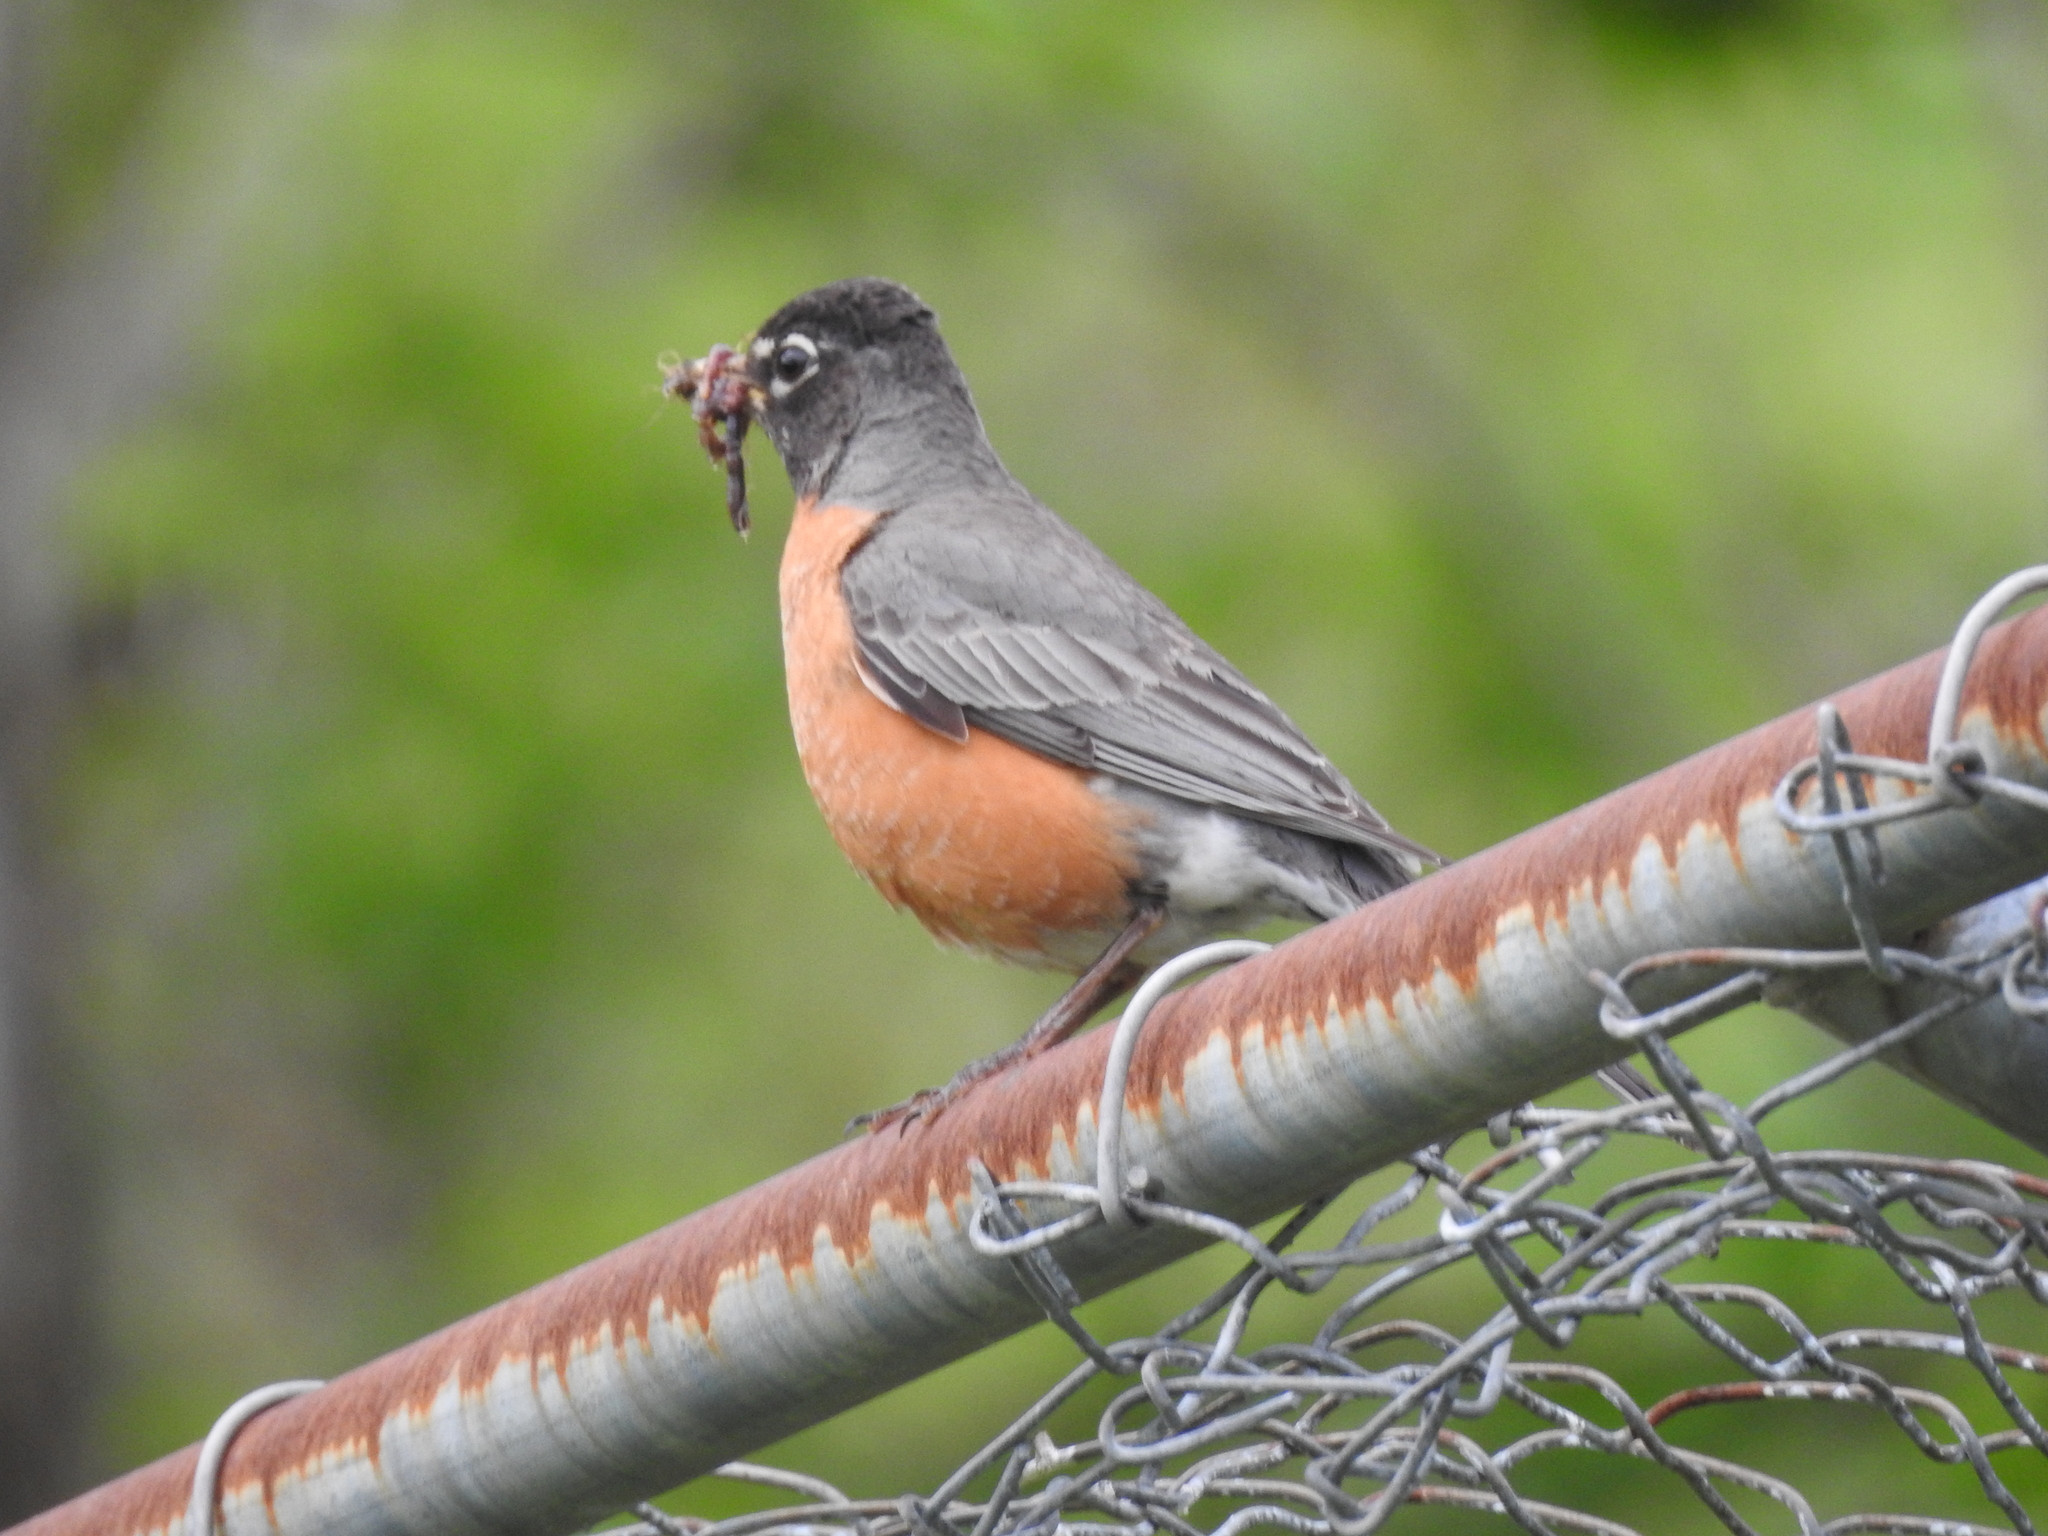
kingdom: Animalia
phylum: Chordata
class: Aves
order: Passeriformes
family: Turdidae
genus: Turdus
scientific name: Turdus migratorius
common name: American robin
